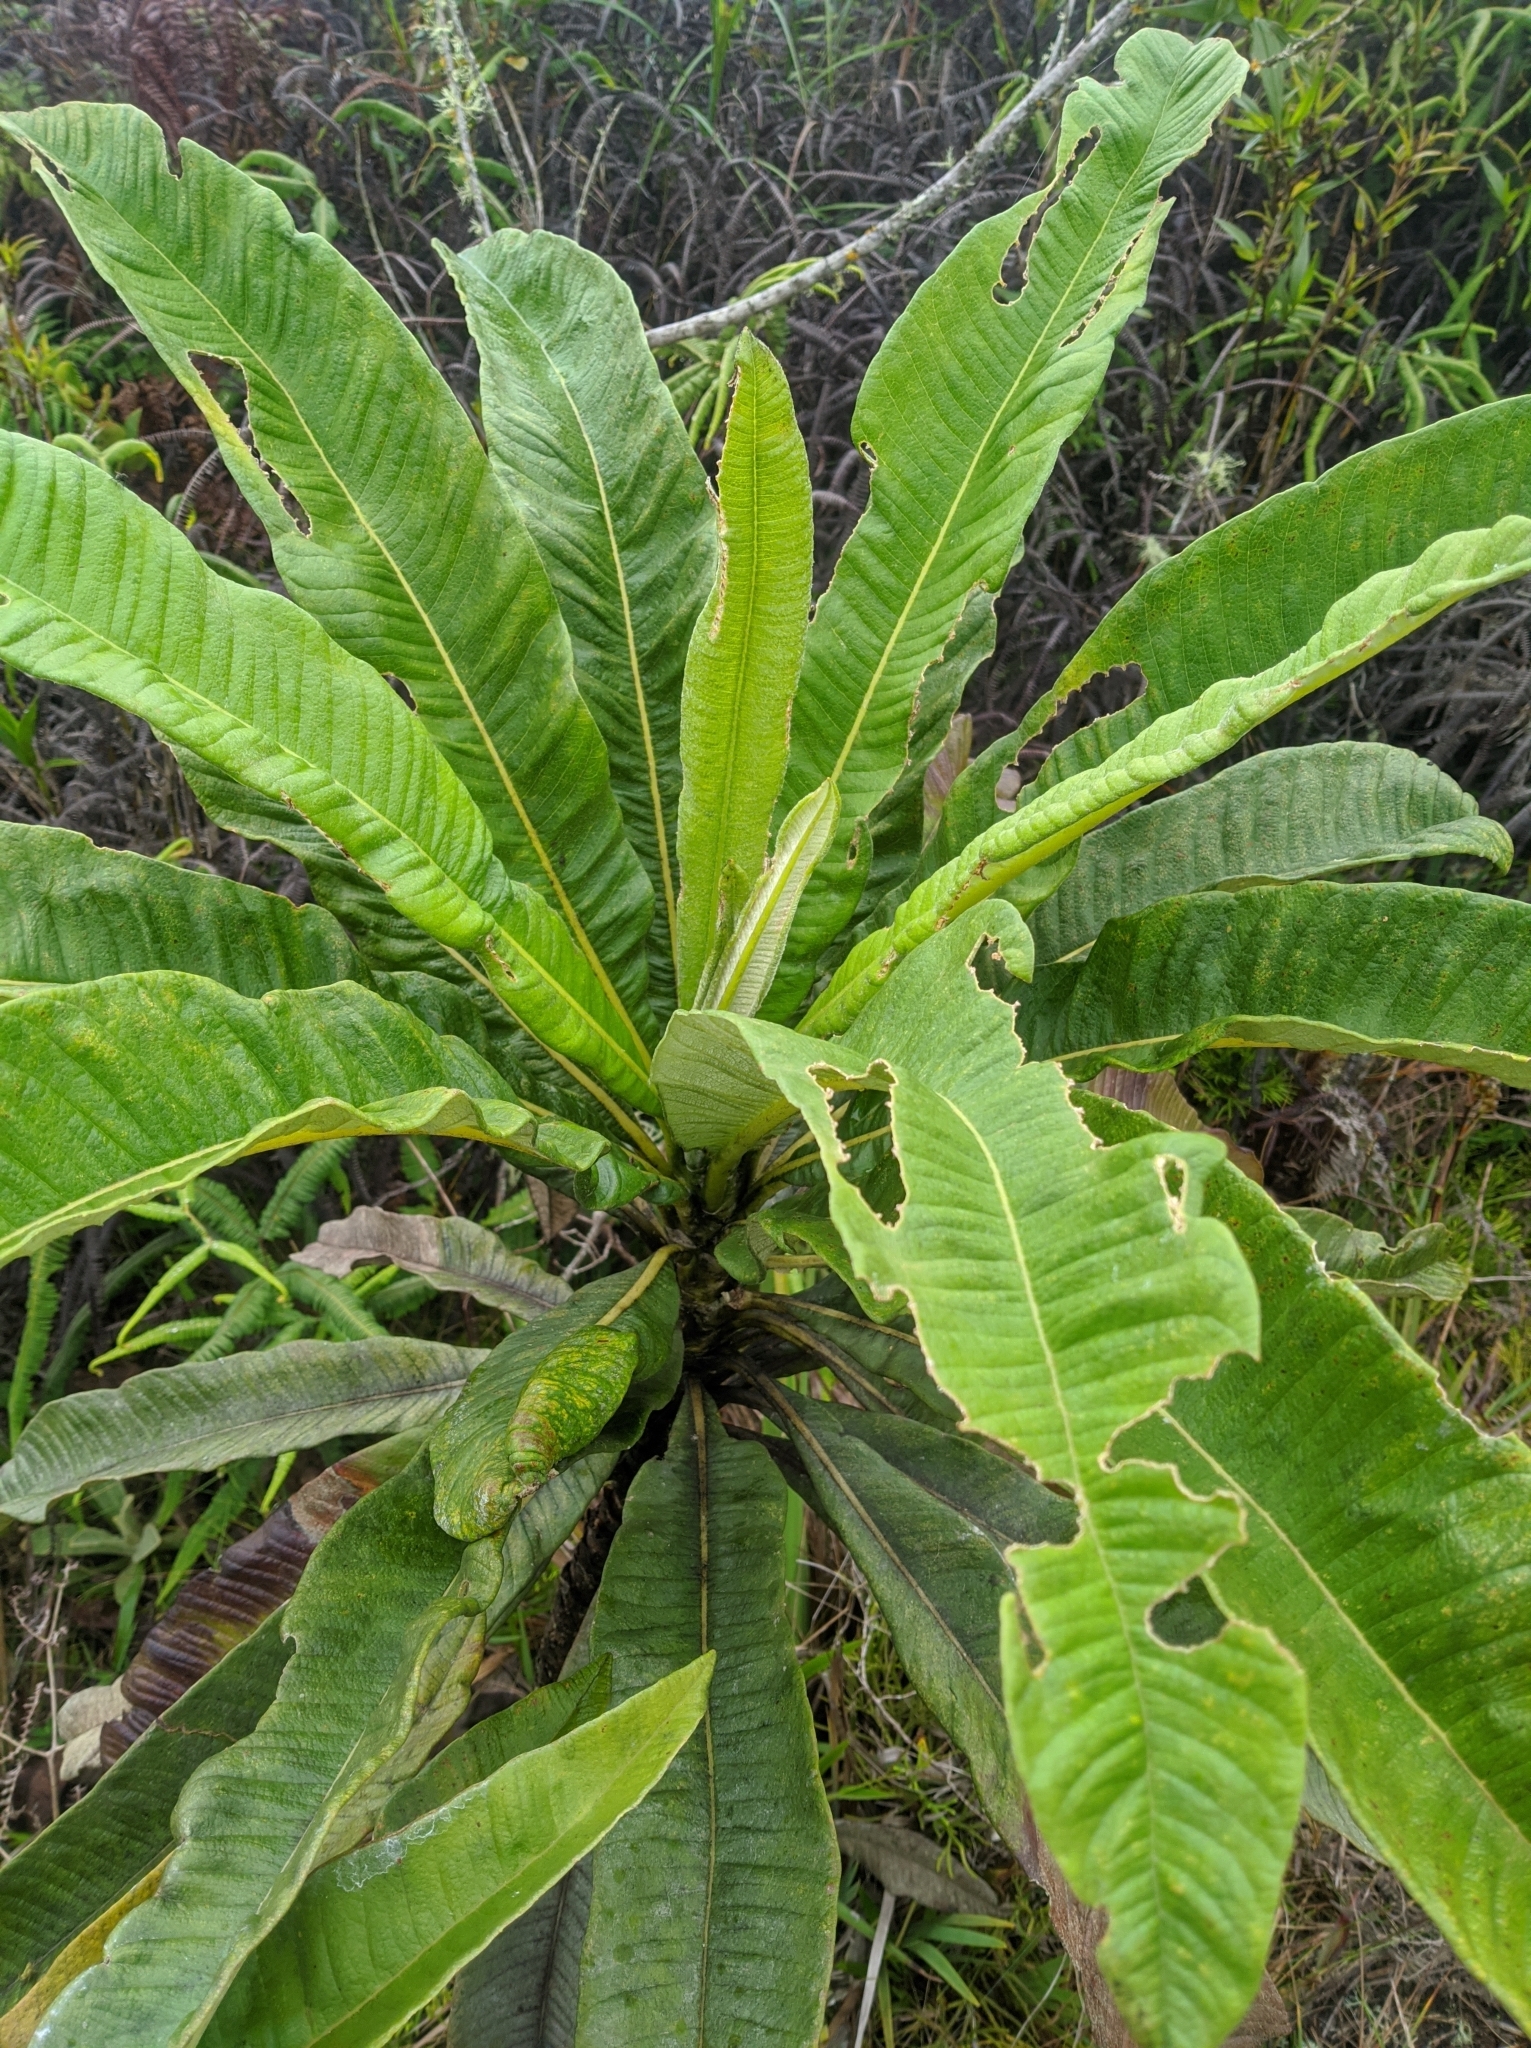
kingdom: Plantae
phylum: Tracheophyta
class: Magnoliopsida
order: Asterales
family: Asteraceae
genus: Espeletia
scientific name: Espeletia neriifolia
